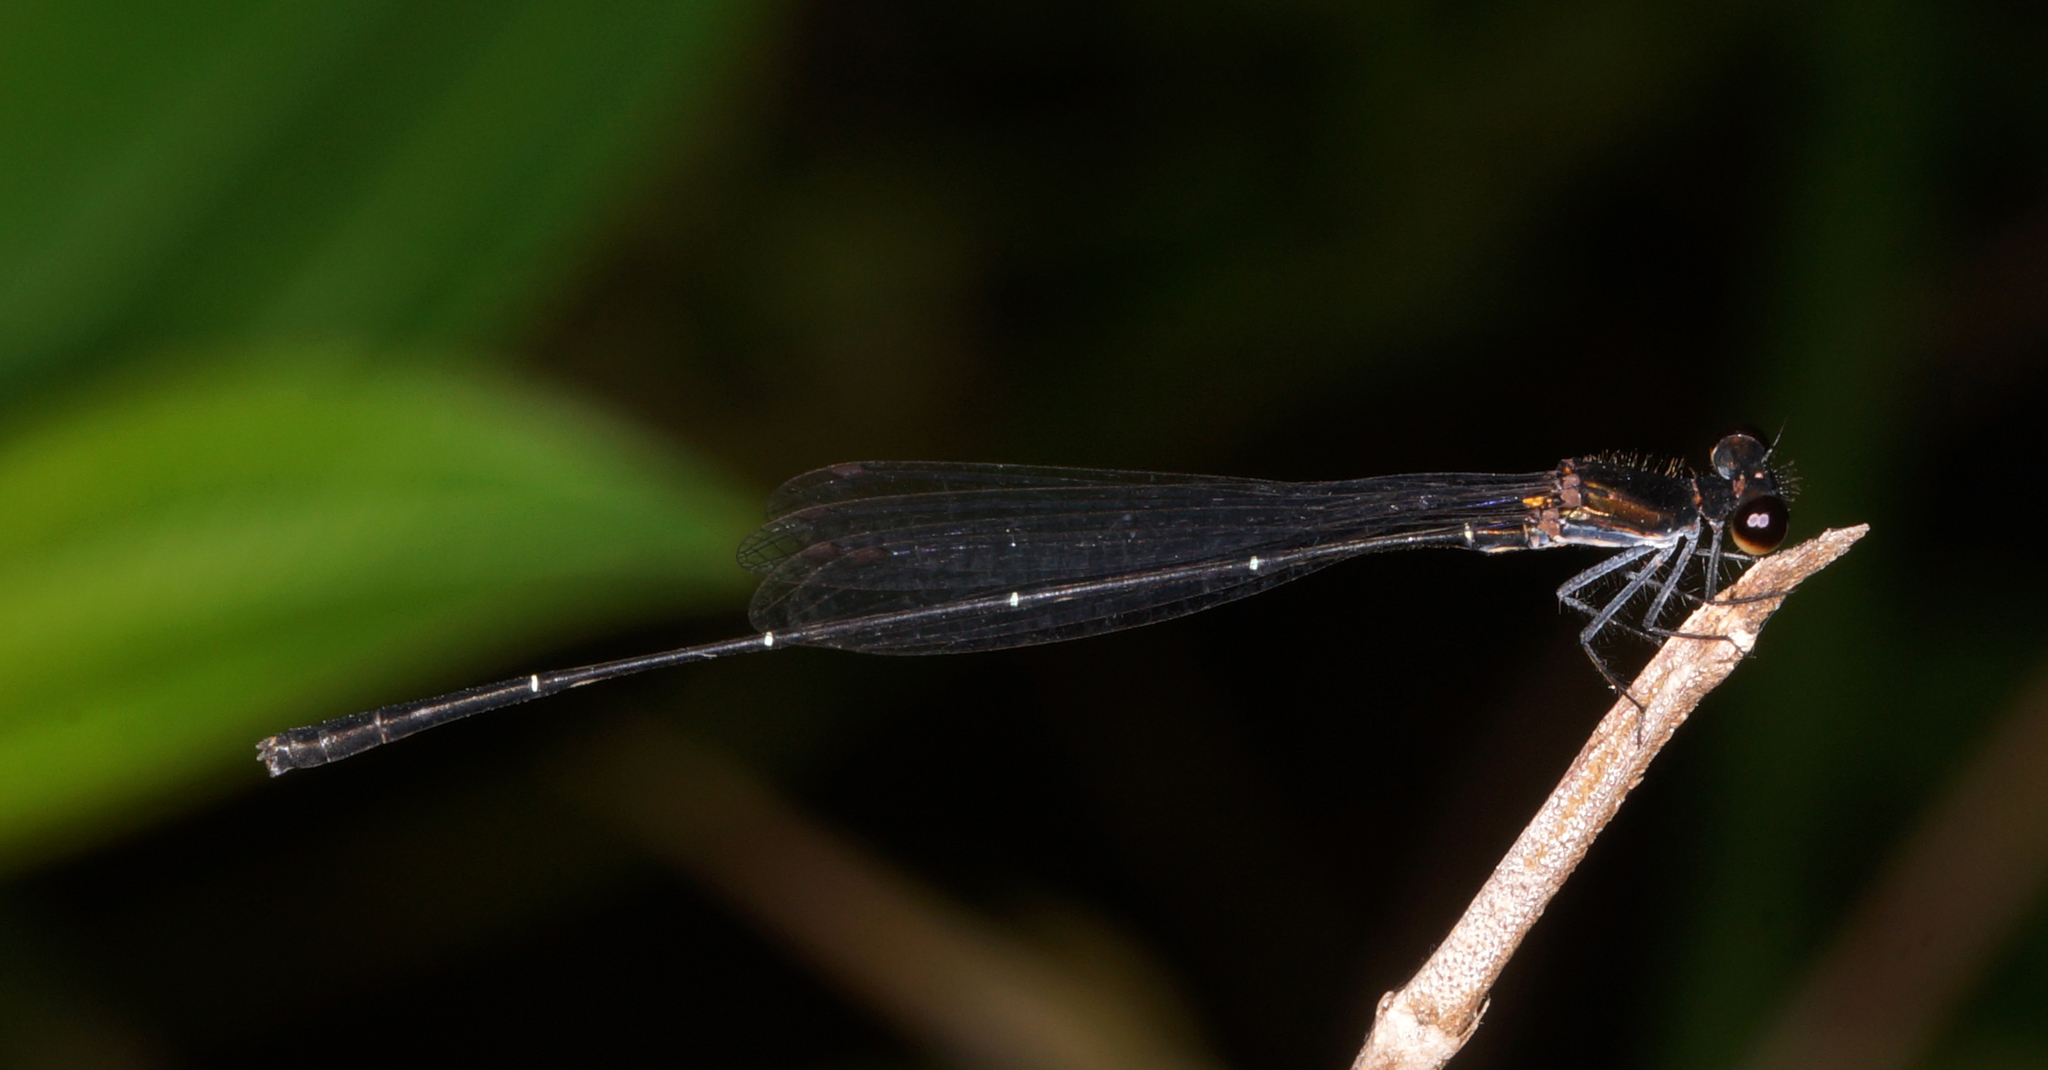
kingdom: Animalia
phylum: Arthropoda
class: Insecta
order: Odonata
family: Platycnemididae
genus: Prodasineura
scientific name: Prodasineura autumnalis
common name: Black threadtail
